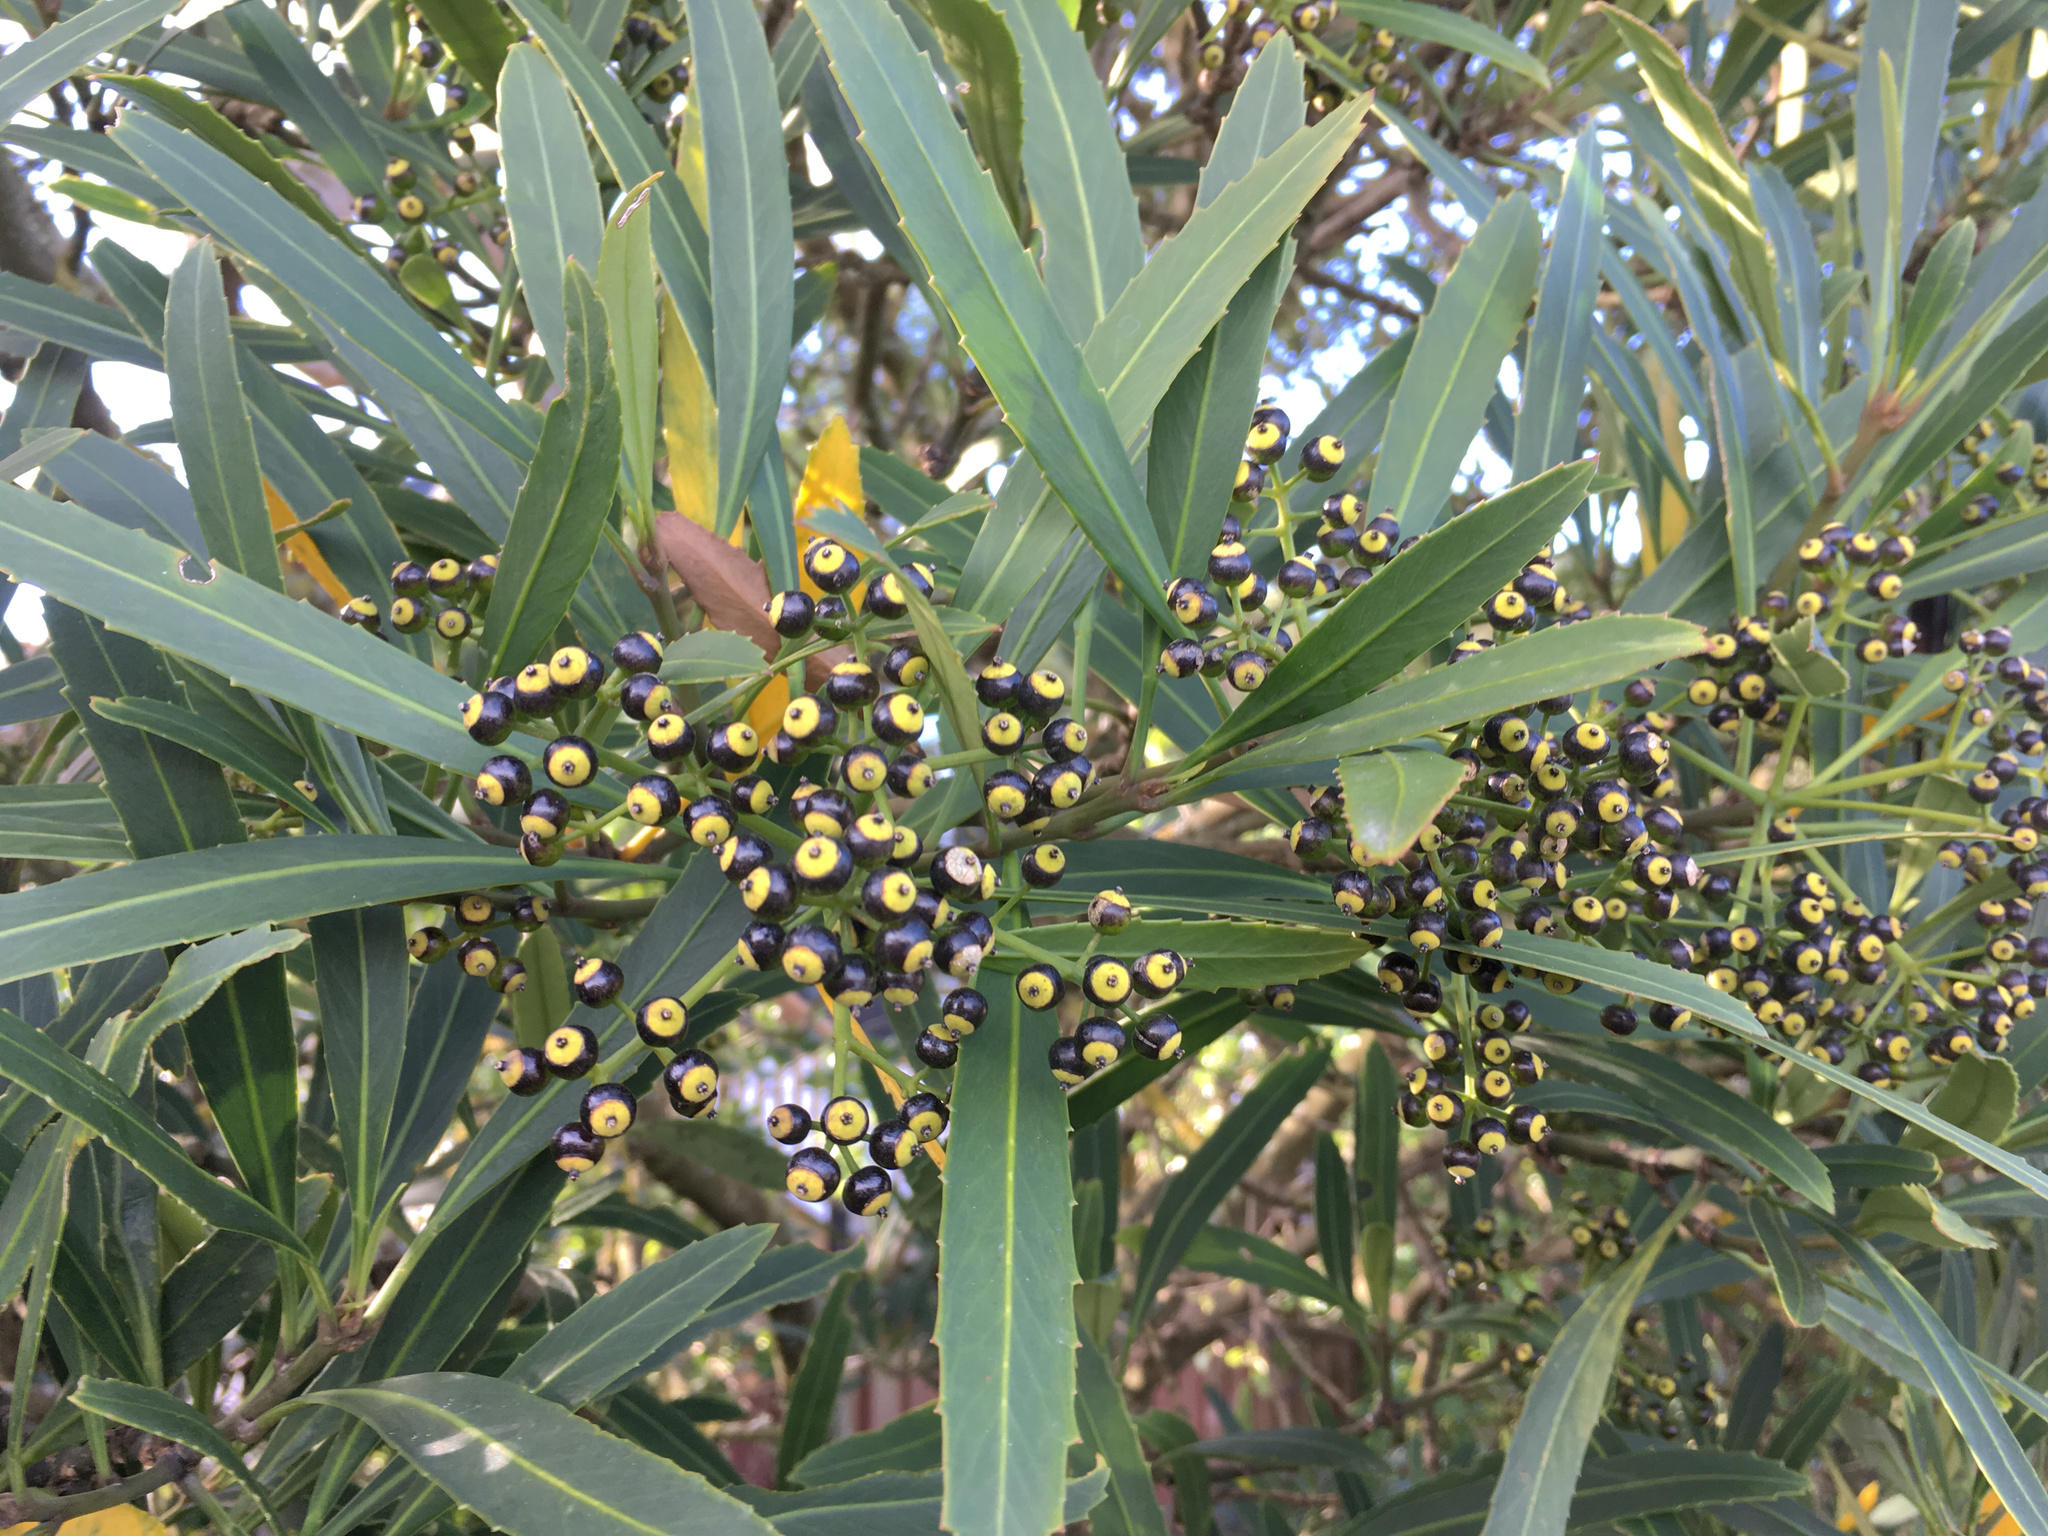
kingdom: Plantae
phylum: Tracheophyta
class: Magnoliopsida
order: Apiales
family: Araliaceae
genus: Pseudopanax
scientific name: Pseudopanax crassifolius
